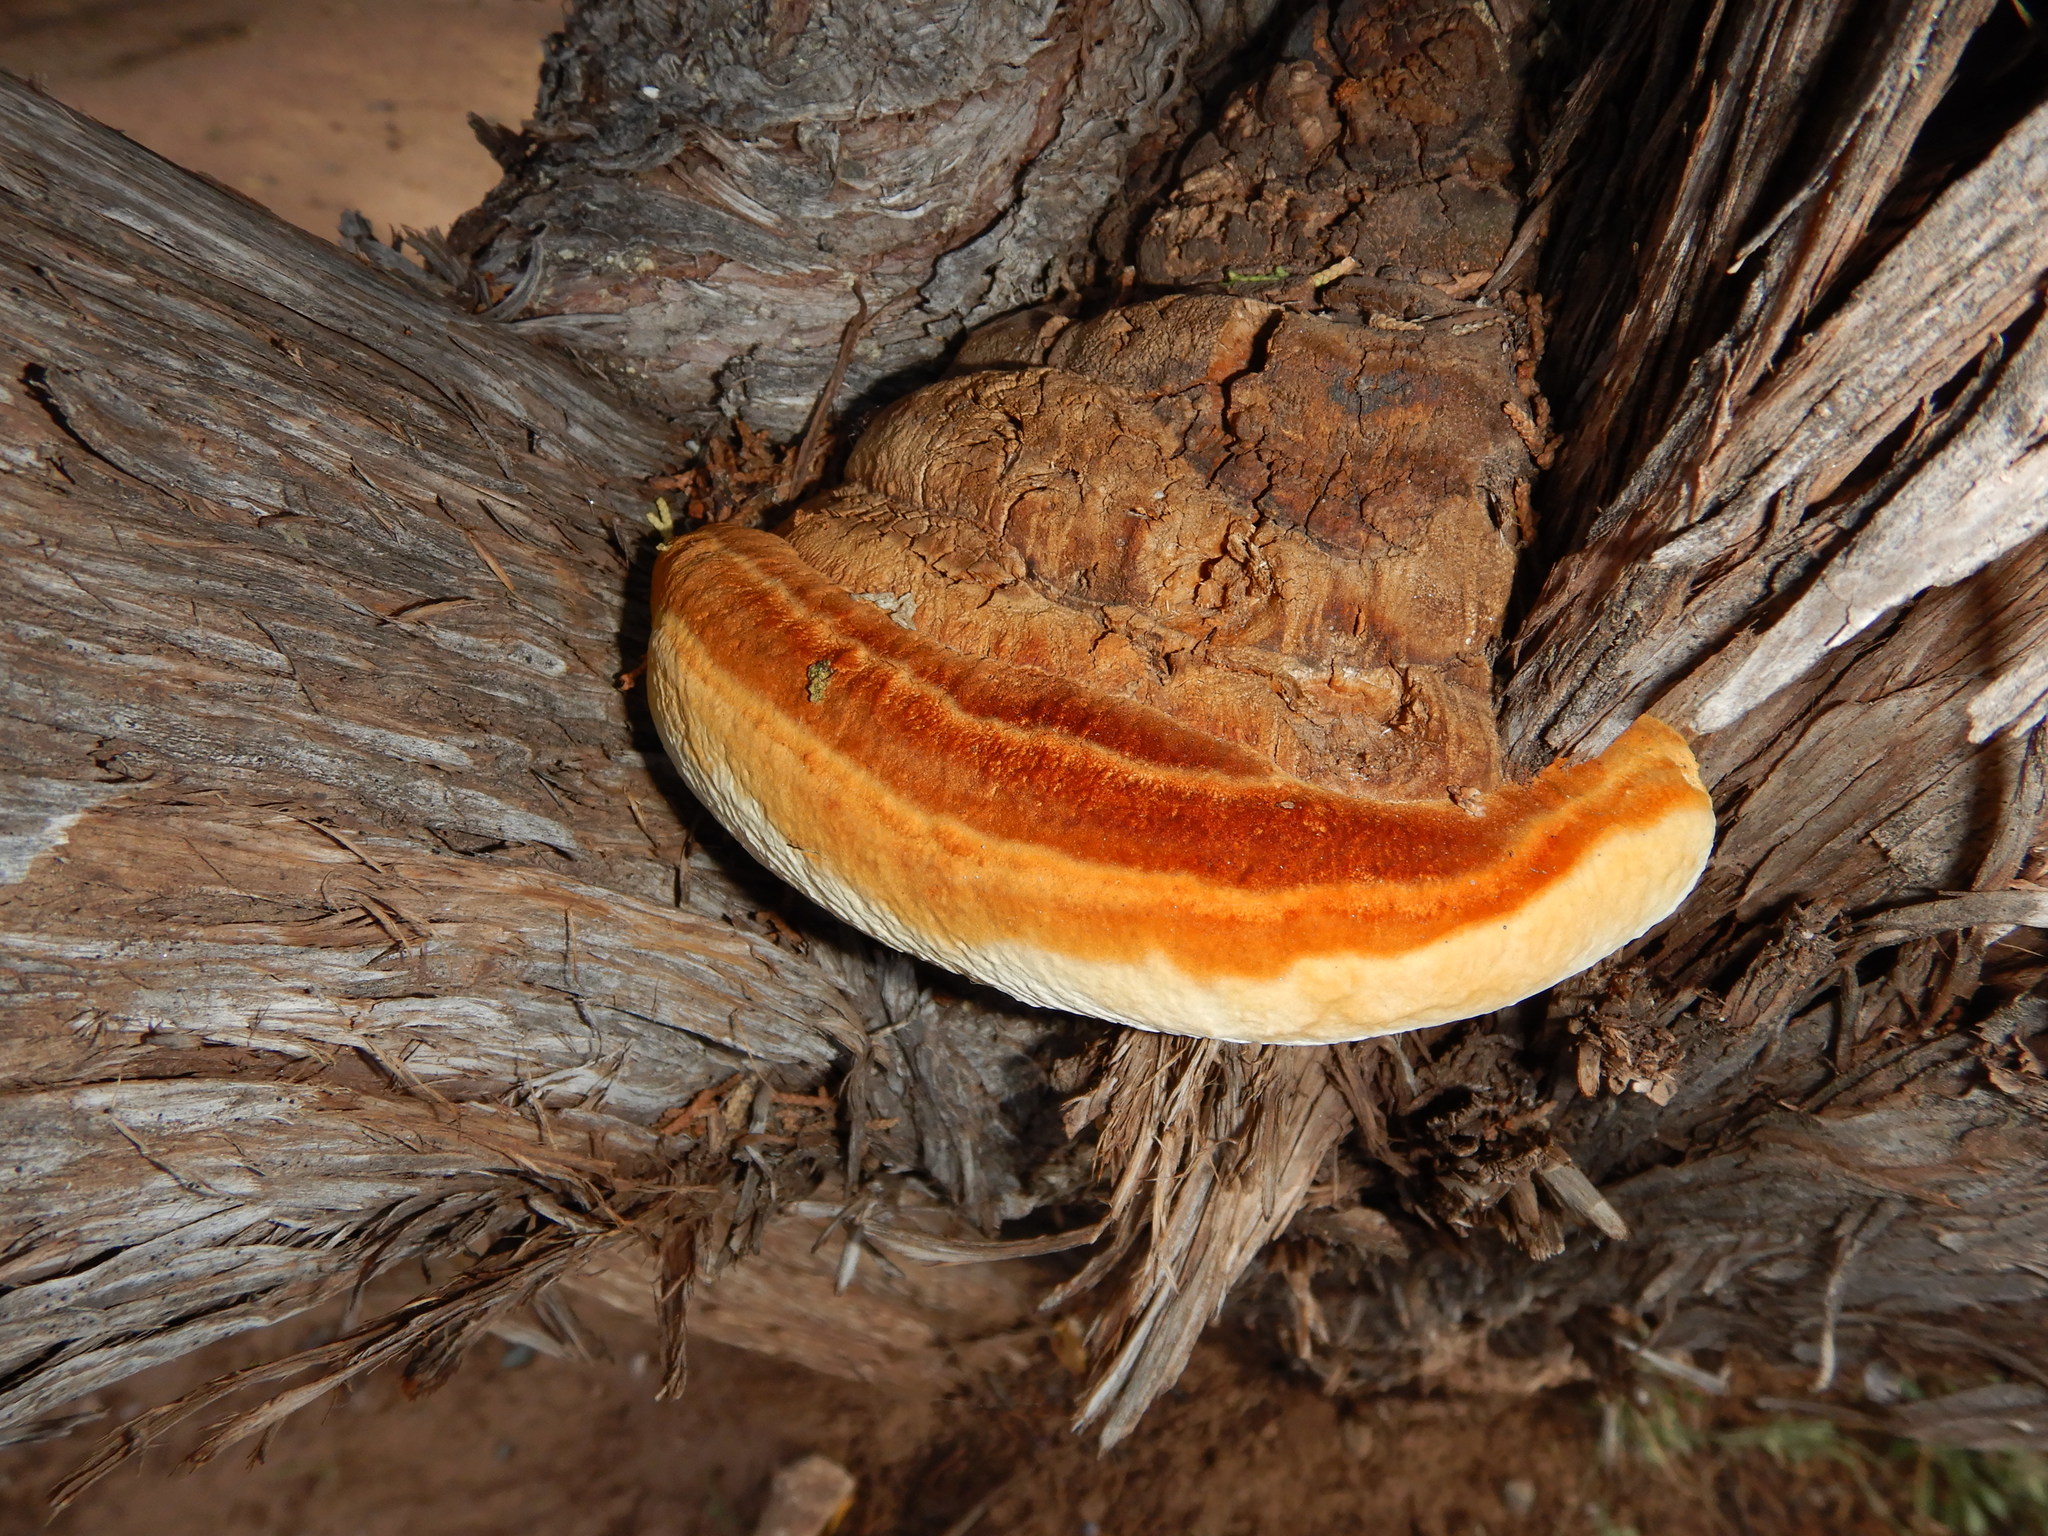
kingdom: Fungi
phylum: Basidiomycota
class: Agaricomycetes
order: Polyporales
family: Polyporaceae
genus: Pyrofomes
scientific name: Pyrofomes juniperinus
